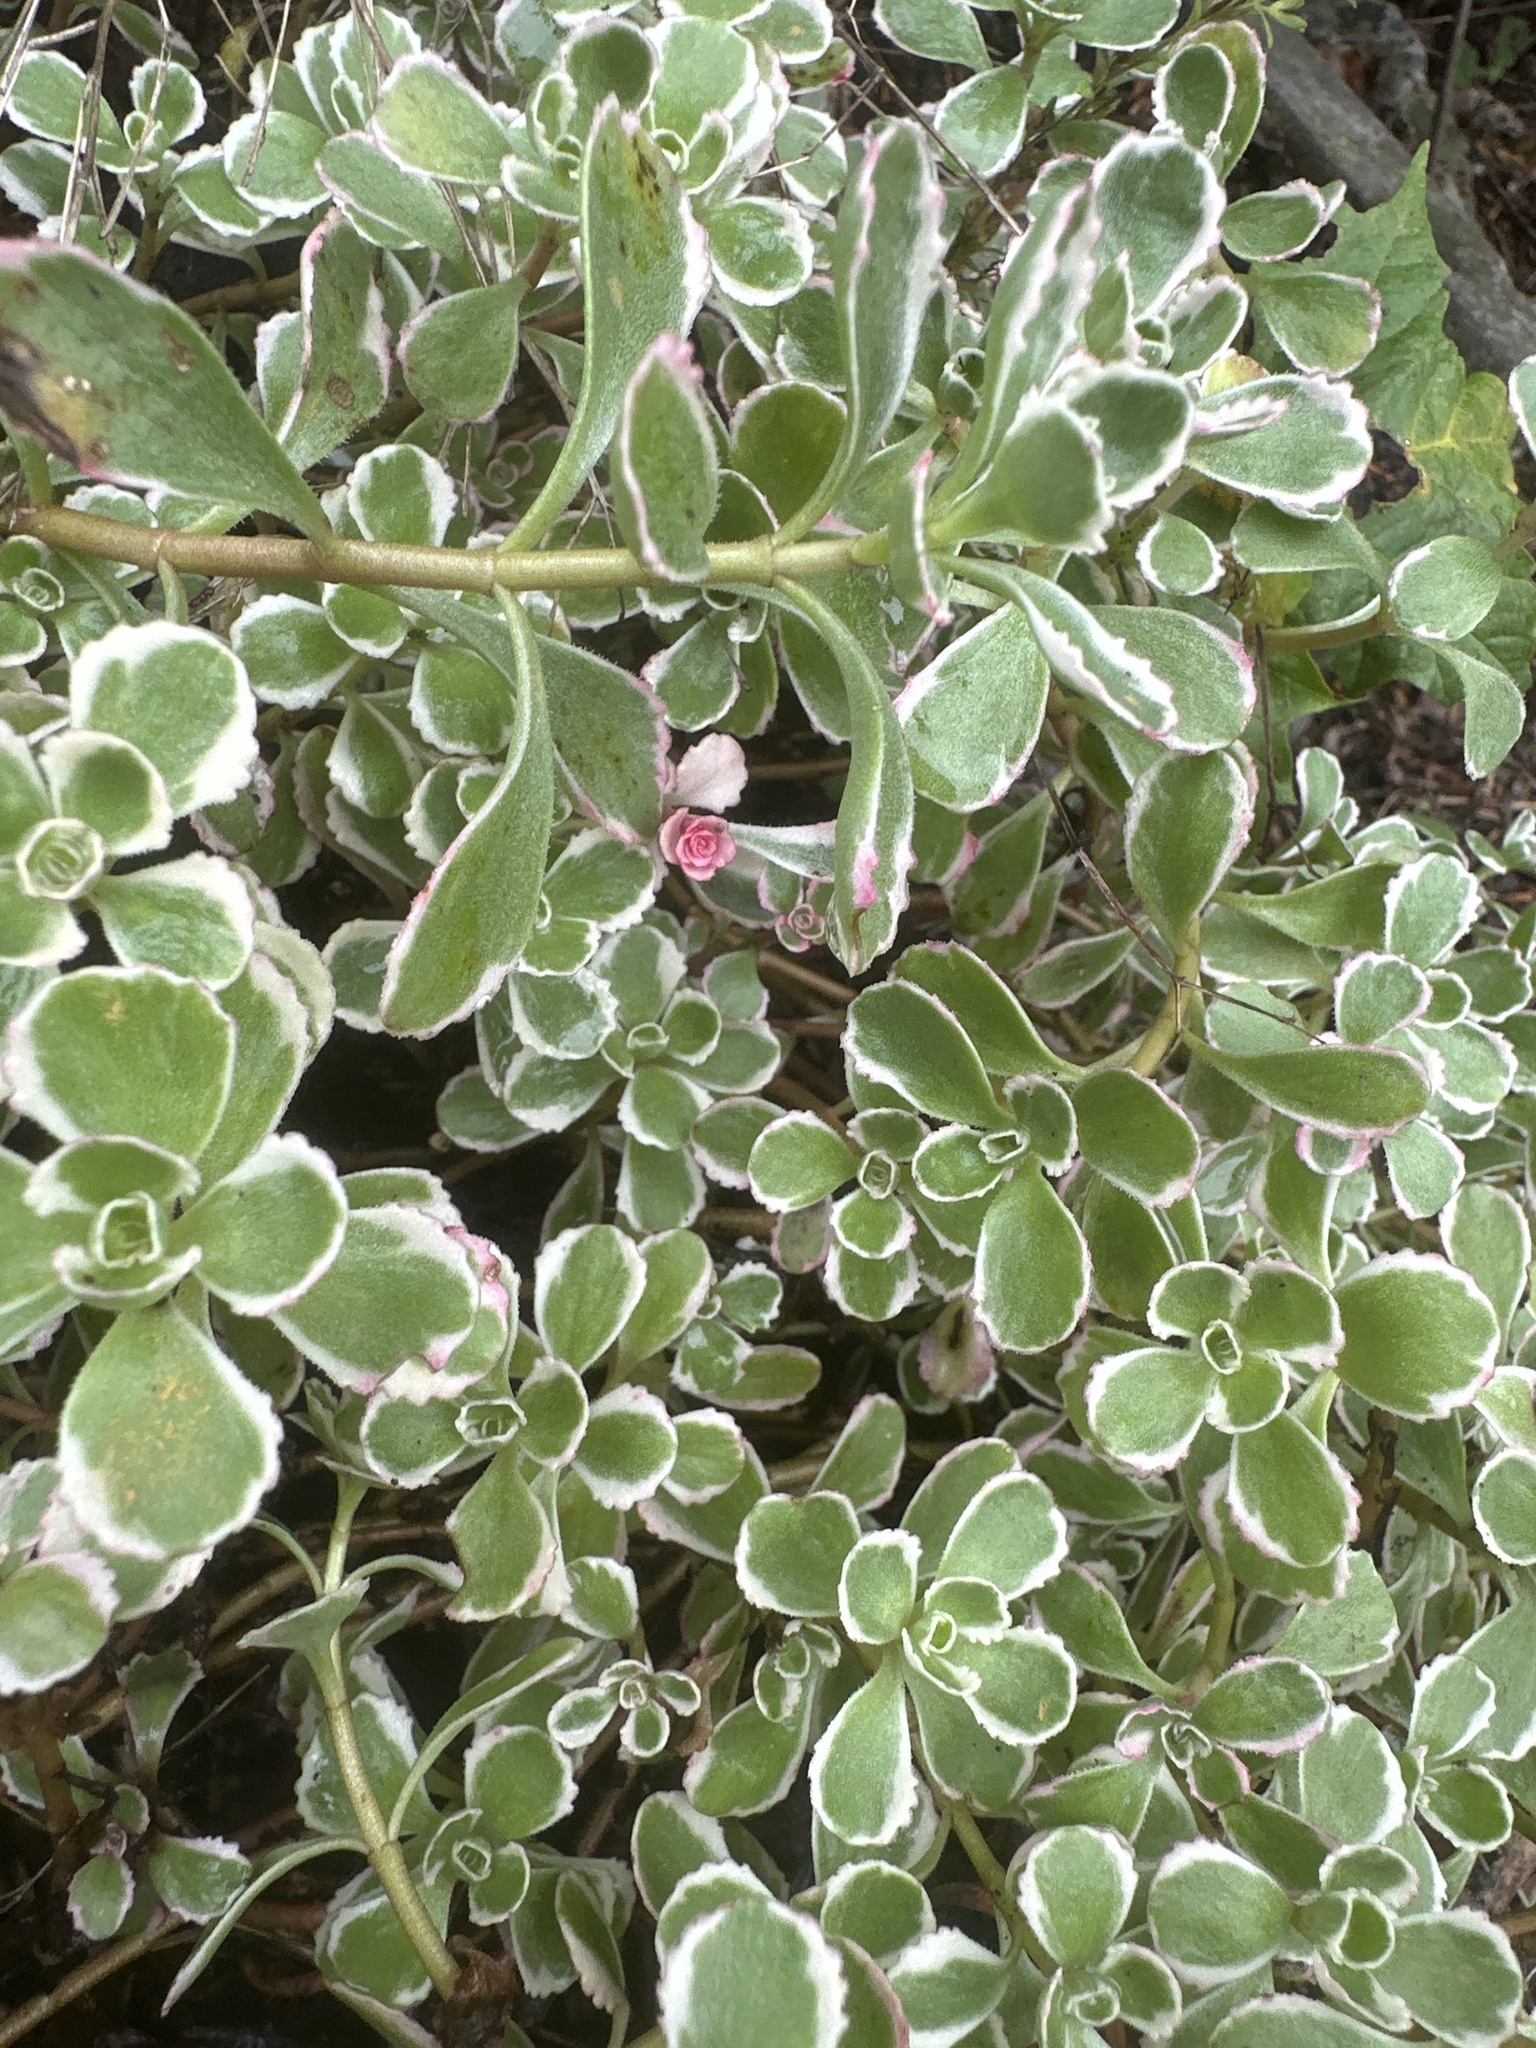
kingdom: Plantae
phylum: Tracheophyta
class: Magnoliopsida
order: Saxifragales
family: Crassulaceae
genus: Phedimus
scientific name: Phedimus spurius
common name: Caucasian stonecrop
